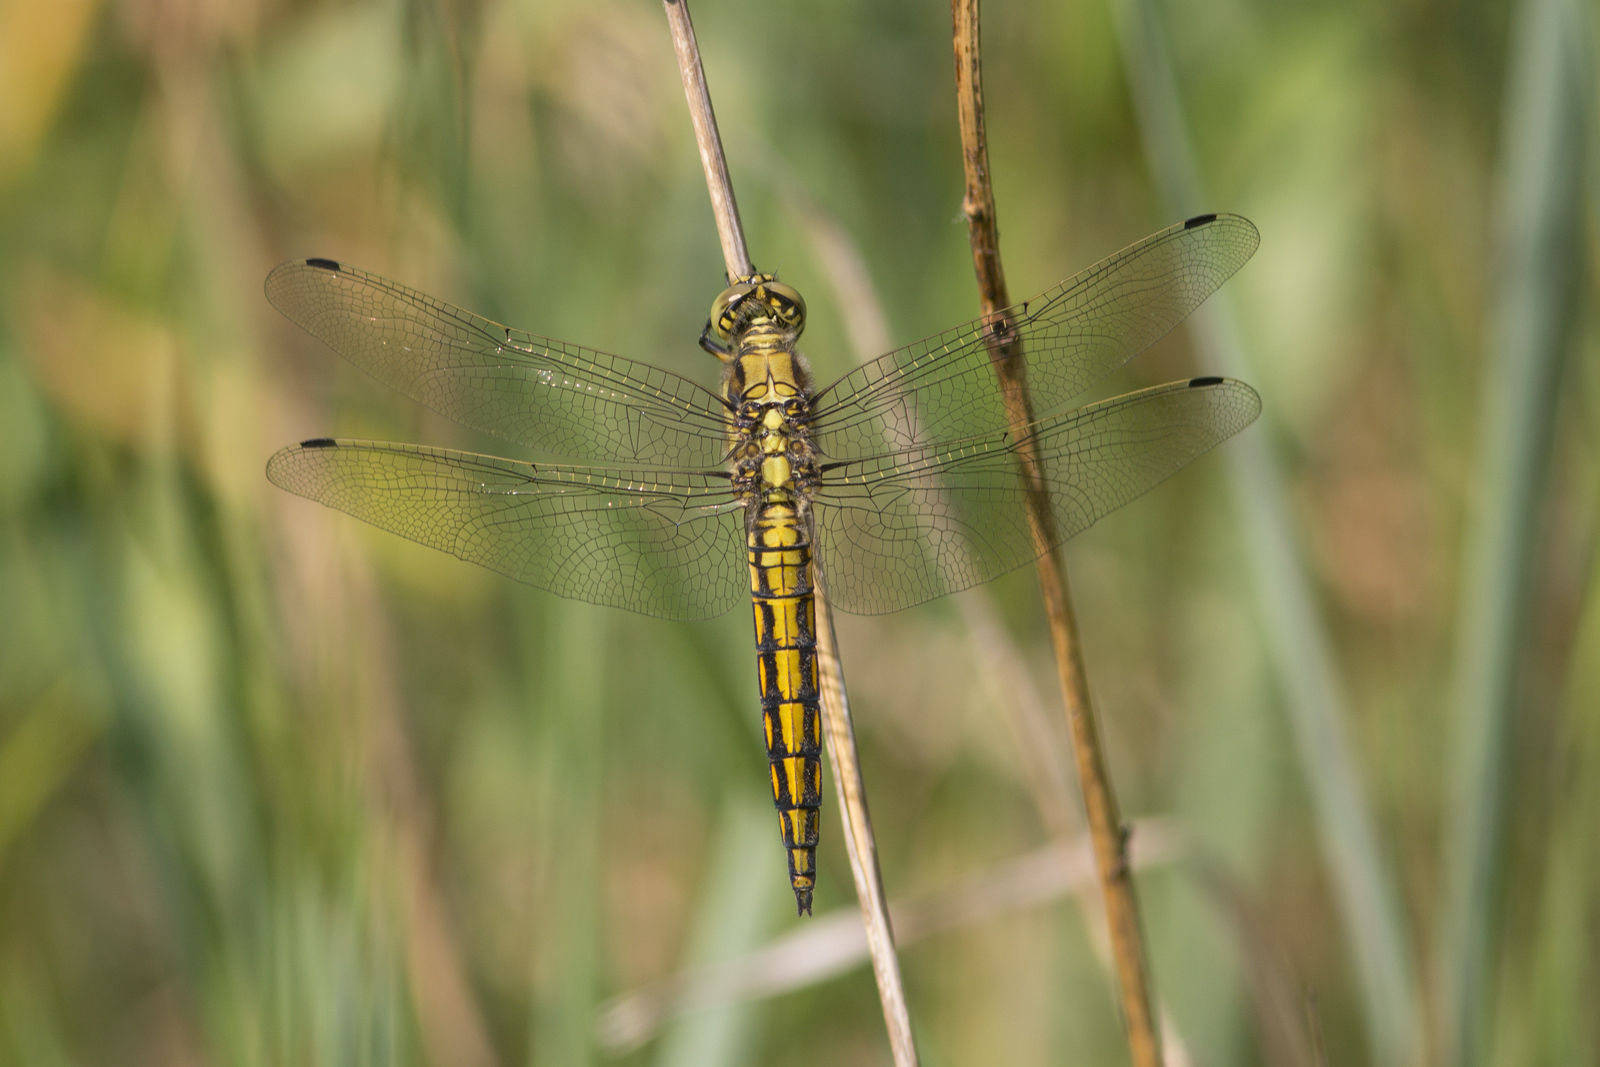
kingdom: Animalia
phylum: Arthropoda
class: Insecta
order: Odonata
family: Libellulidae
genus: Orthetrum
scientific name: Orthetrum cancellatum
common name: Black-tailed skimmer
